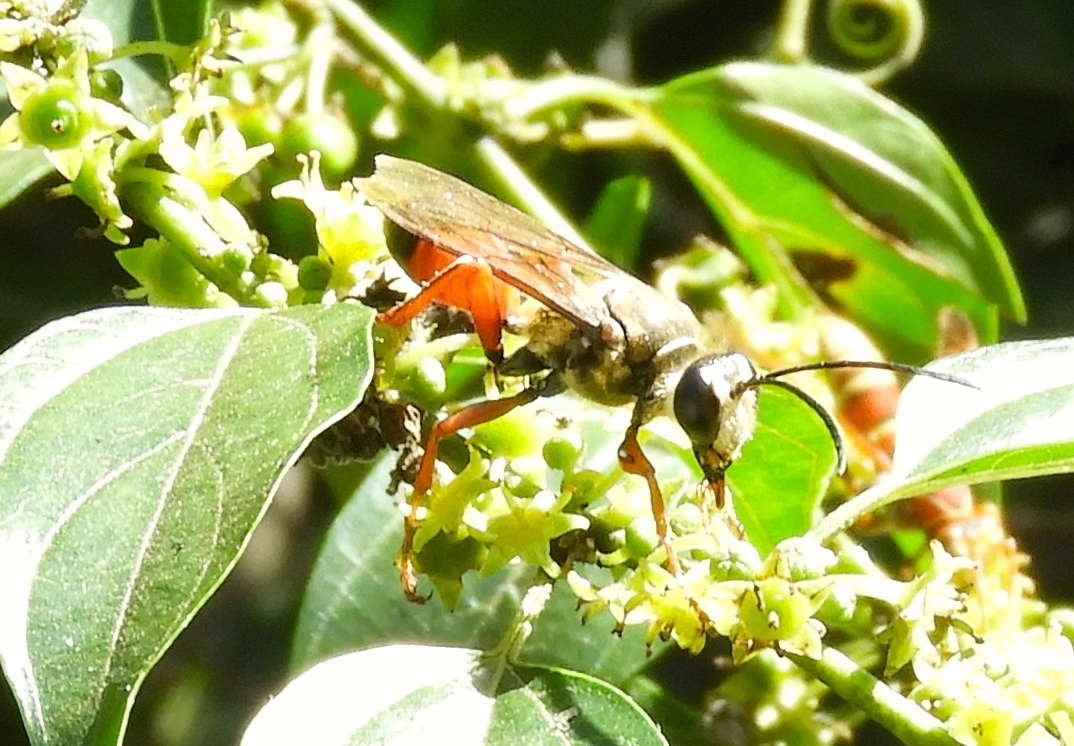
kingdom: Animalia
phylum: Arthropoda
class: Insecta
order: Hymenoptera
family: Sphecidae
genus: Sphex
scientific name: Sphex ichneumoneus
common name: Great golden digger wasp
